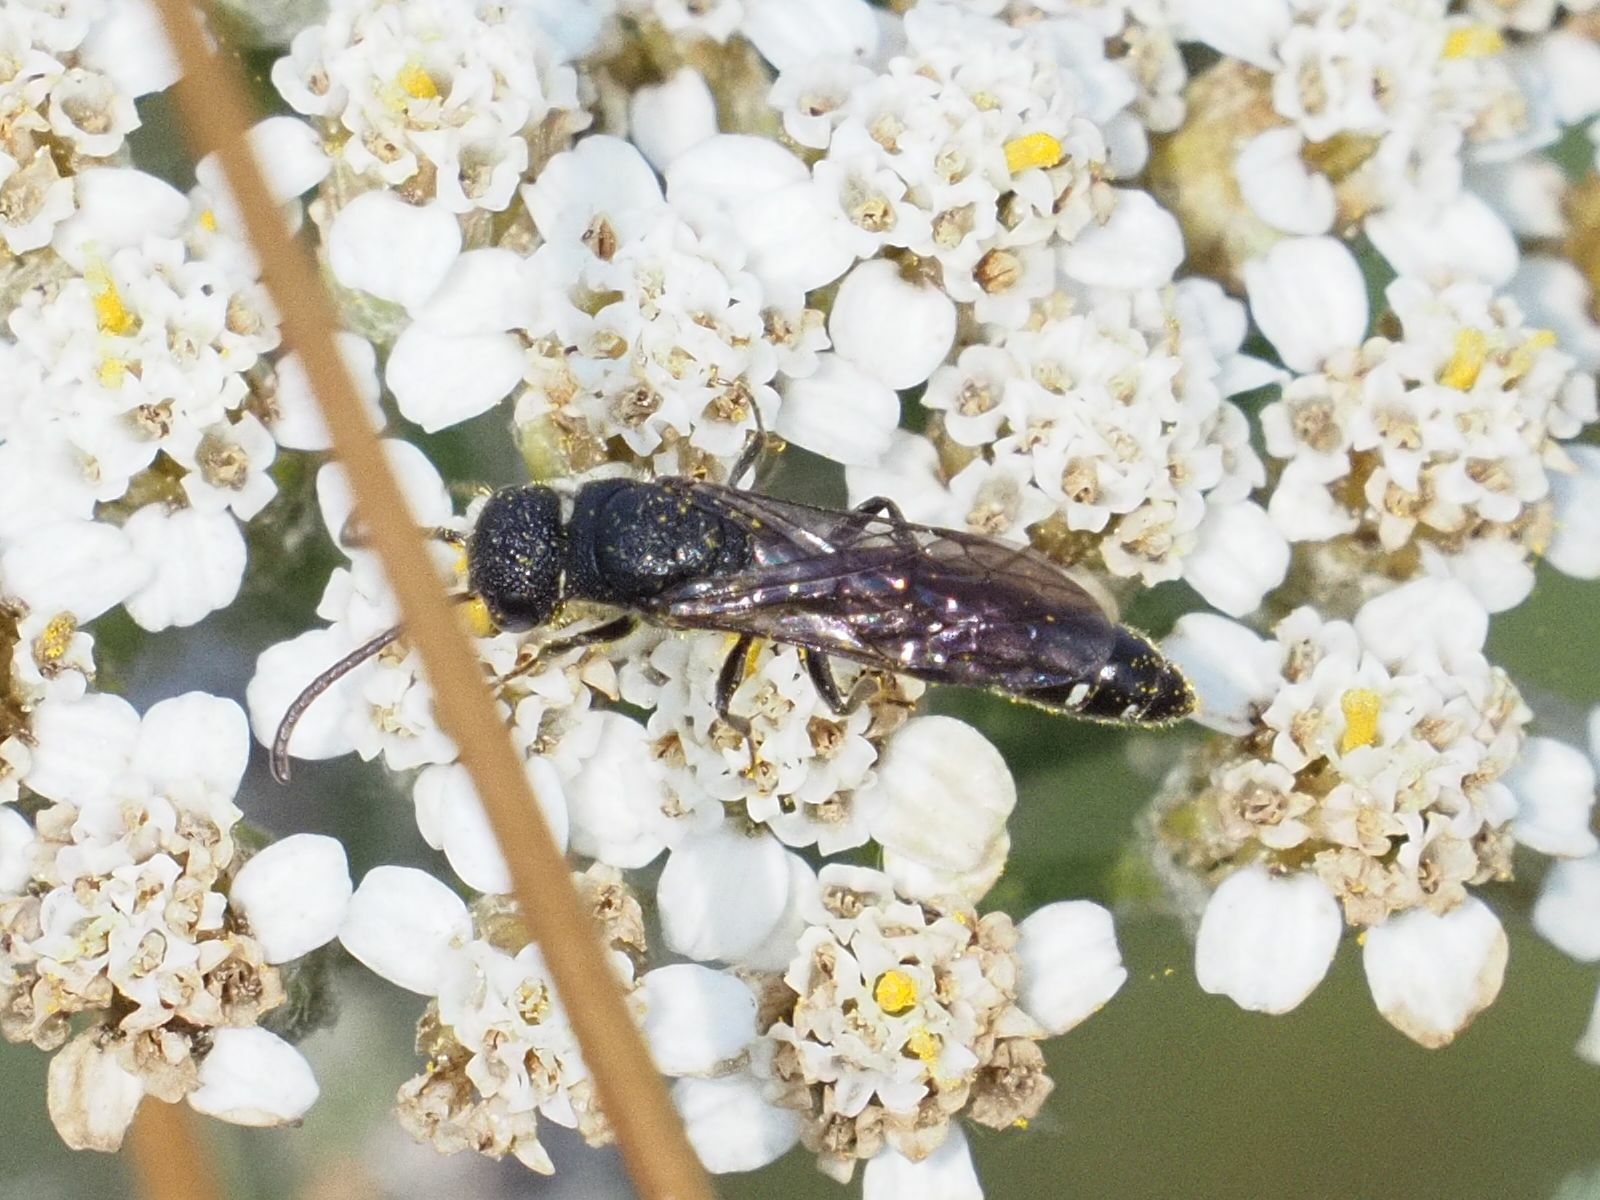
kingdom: Animalia
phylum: Arthropoda
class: Insecta
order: Hymenoptera
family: Sapygidae
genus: Sapygina
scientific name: Sapygina decemguttata
